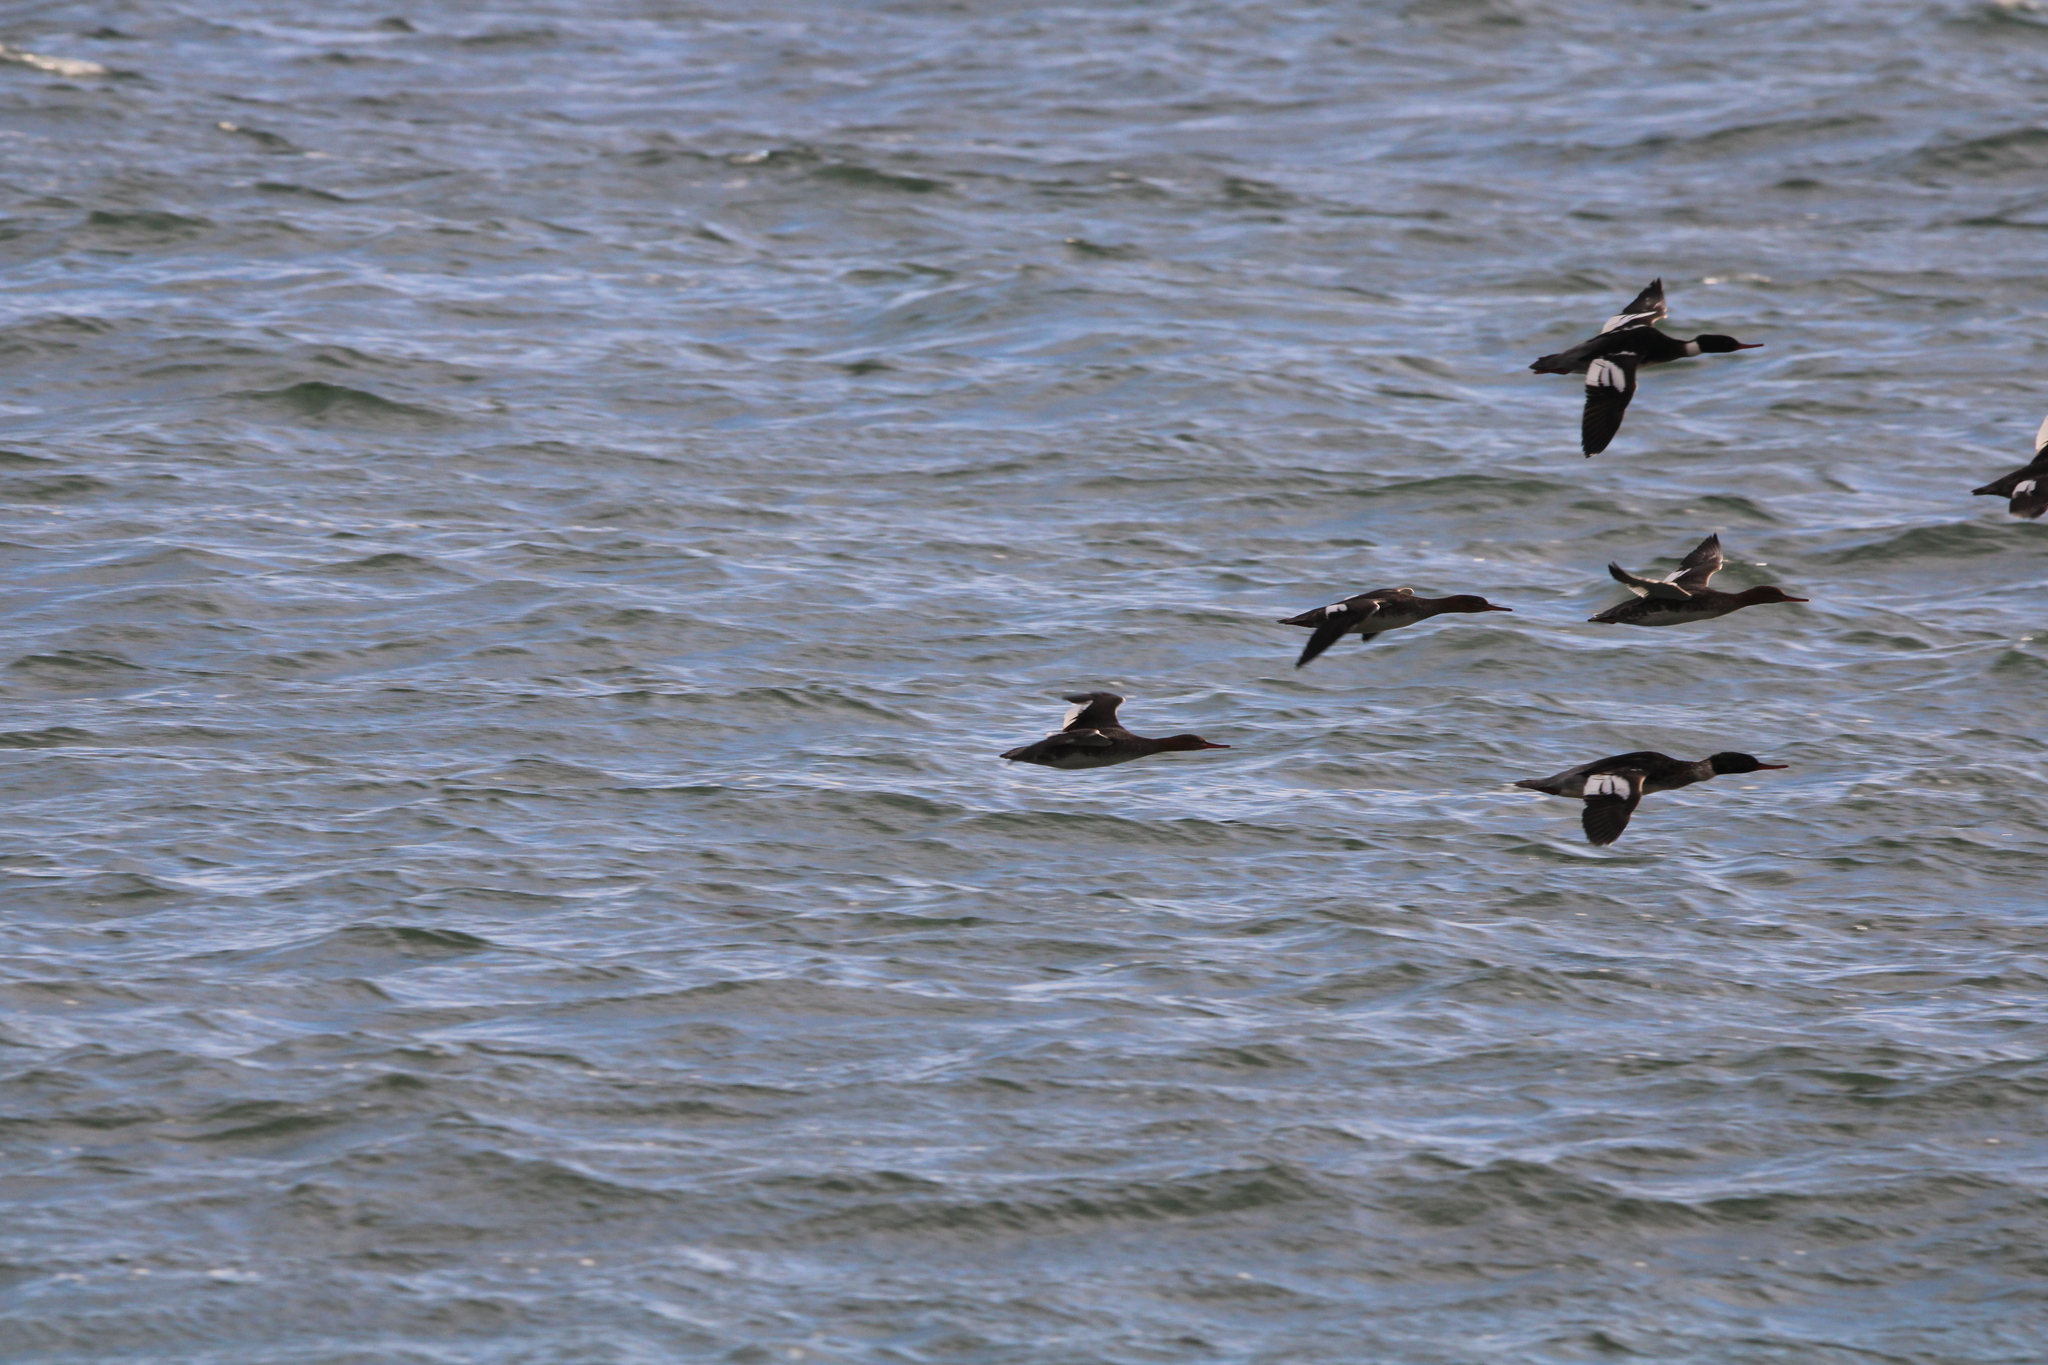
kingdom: Animalia
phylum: Chordata
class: Aves
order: Anseriformes
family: Anatidae
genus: Mergus
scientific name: Mergus serrator
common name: Red-breasted merganser
